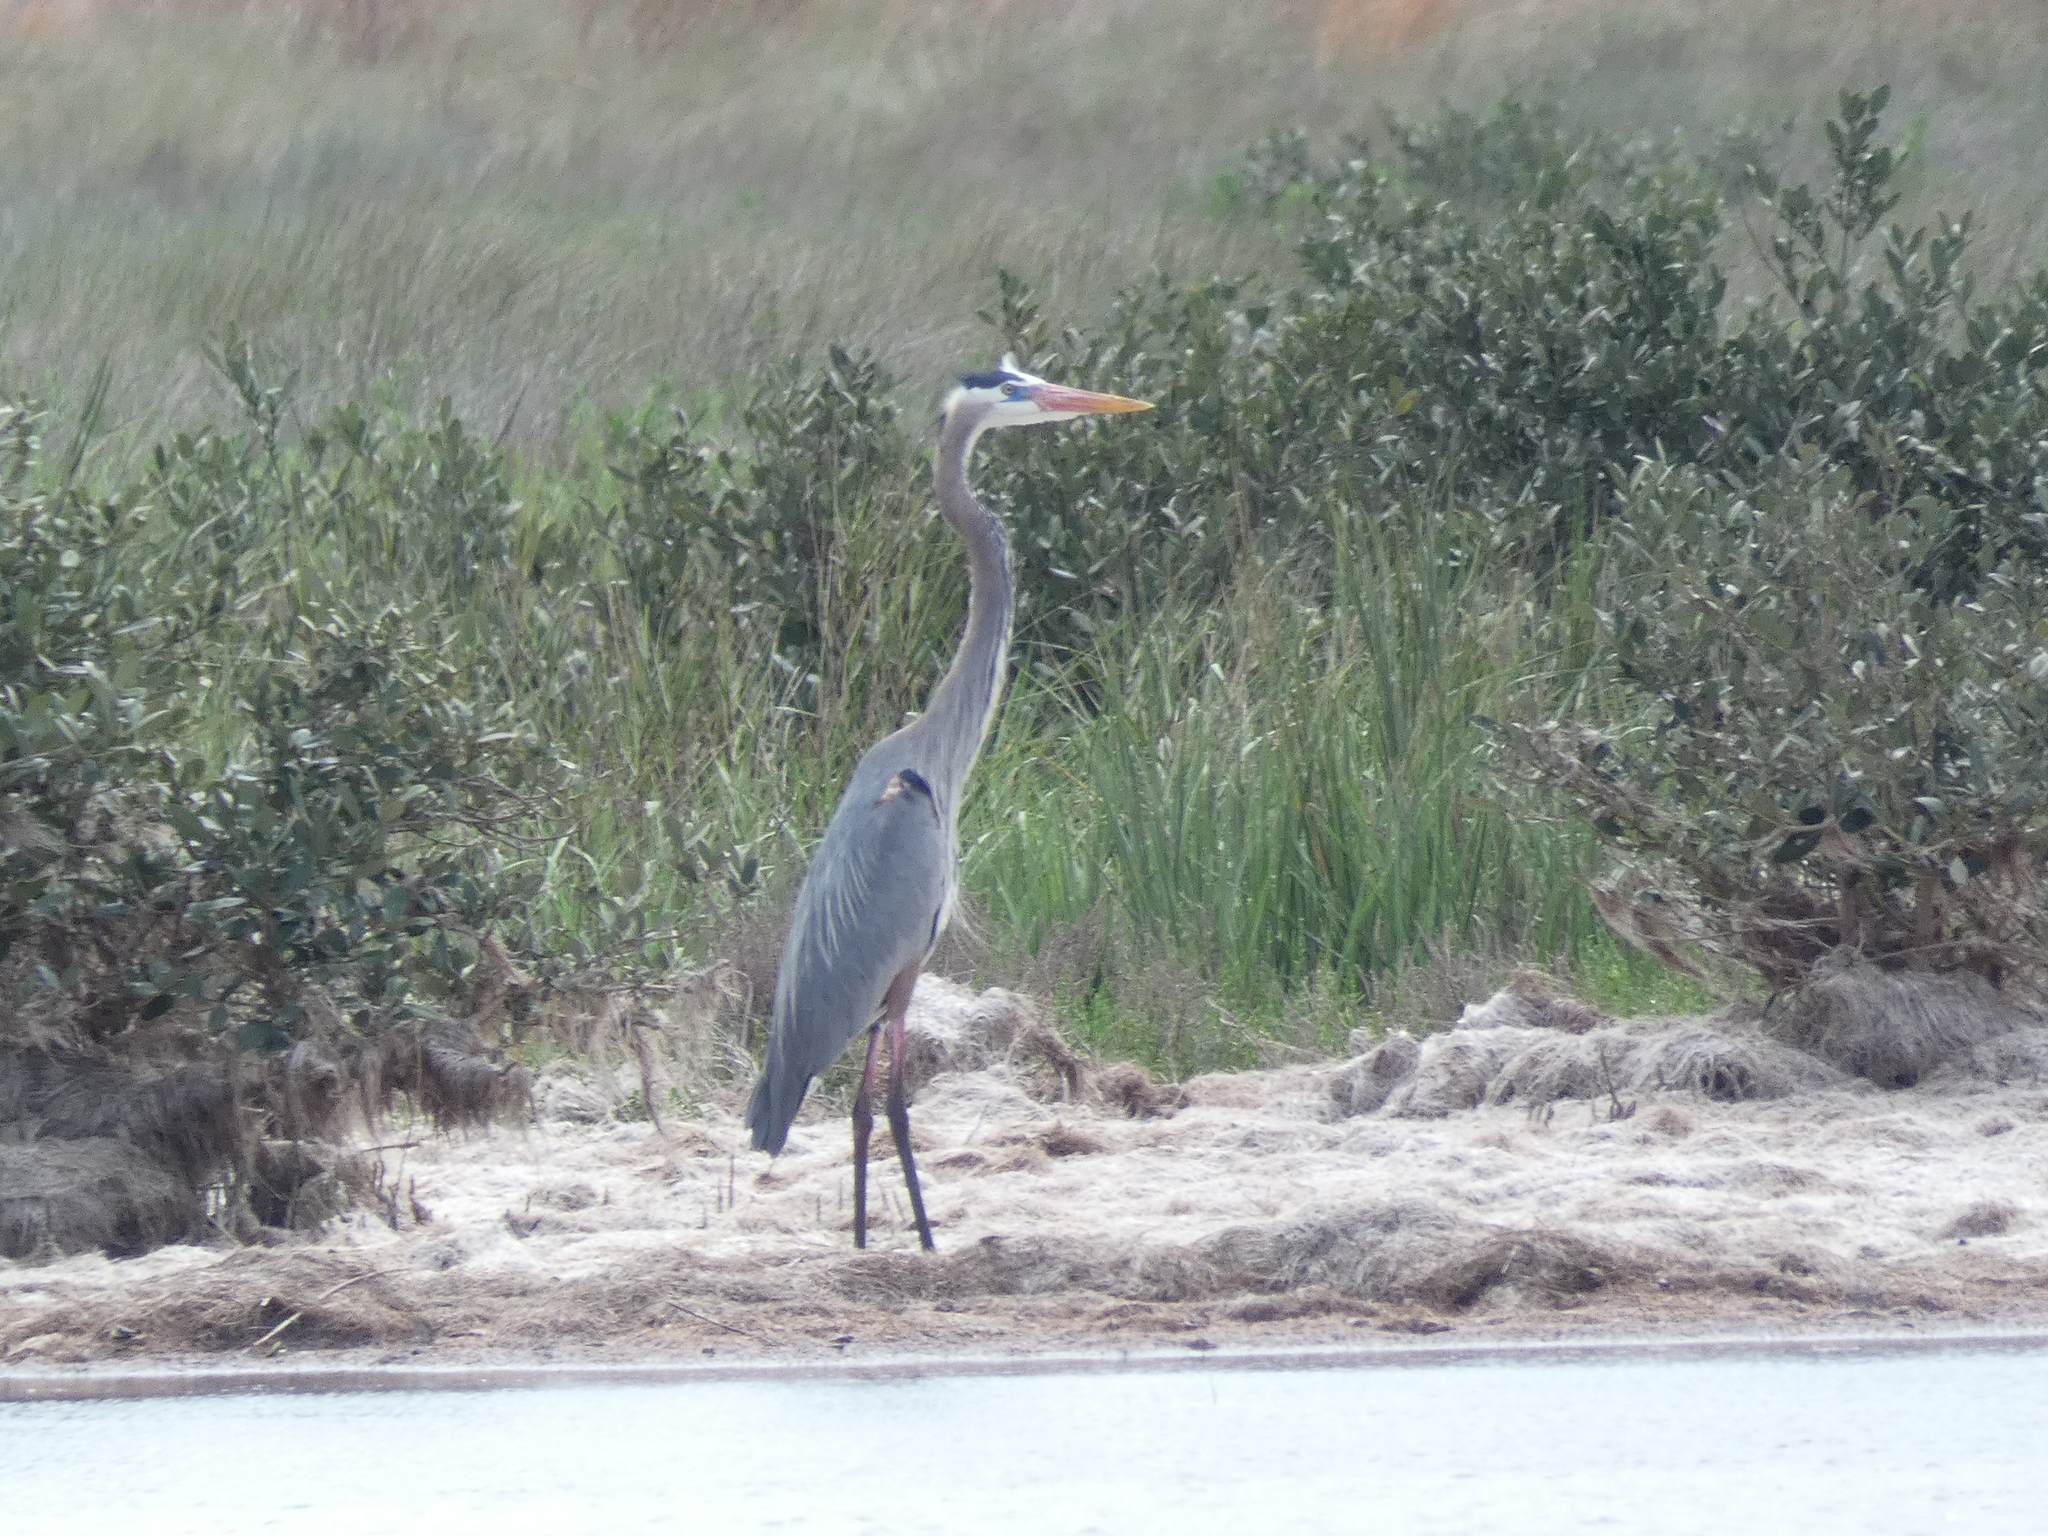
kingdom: Animalia
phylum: Chordata
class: Aves
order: Pelecaniformes
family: Ardeidae
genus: Ardea
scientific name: Ardea herodias
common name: Great blue heron
